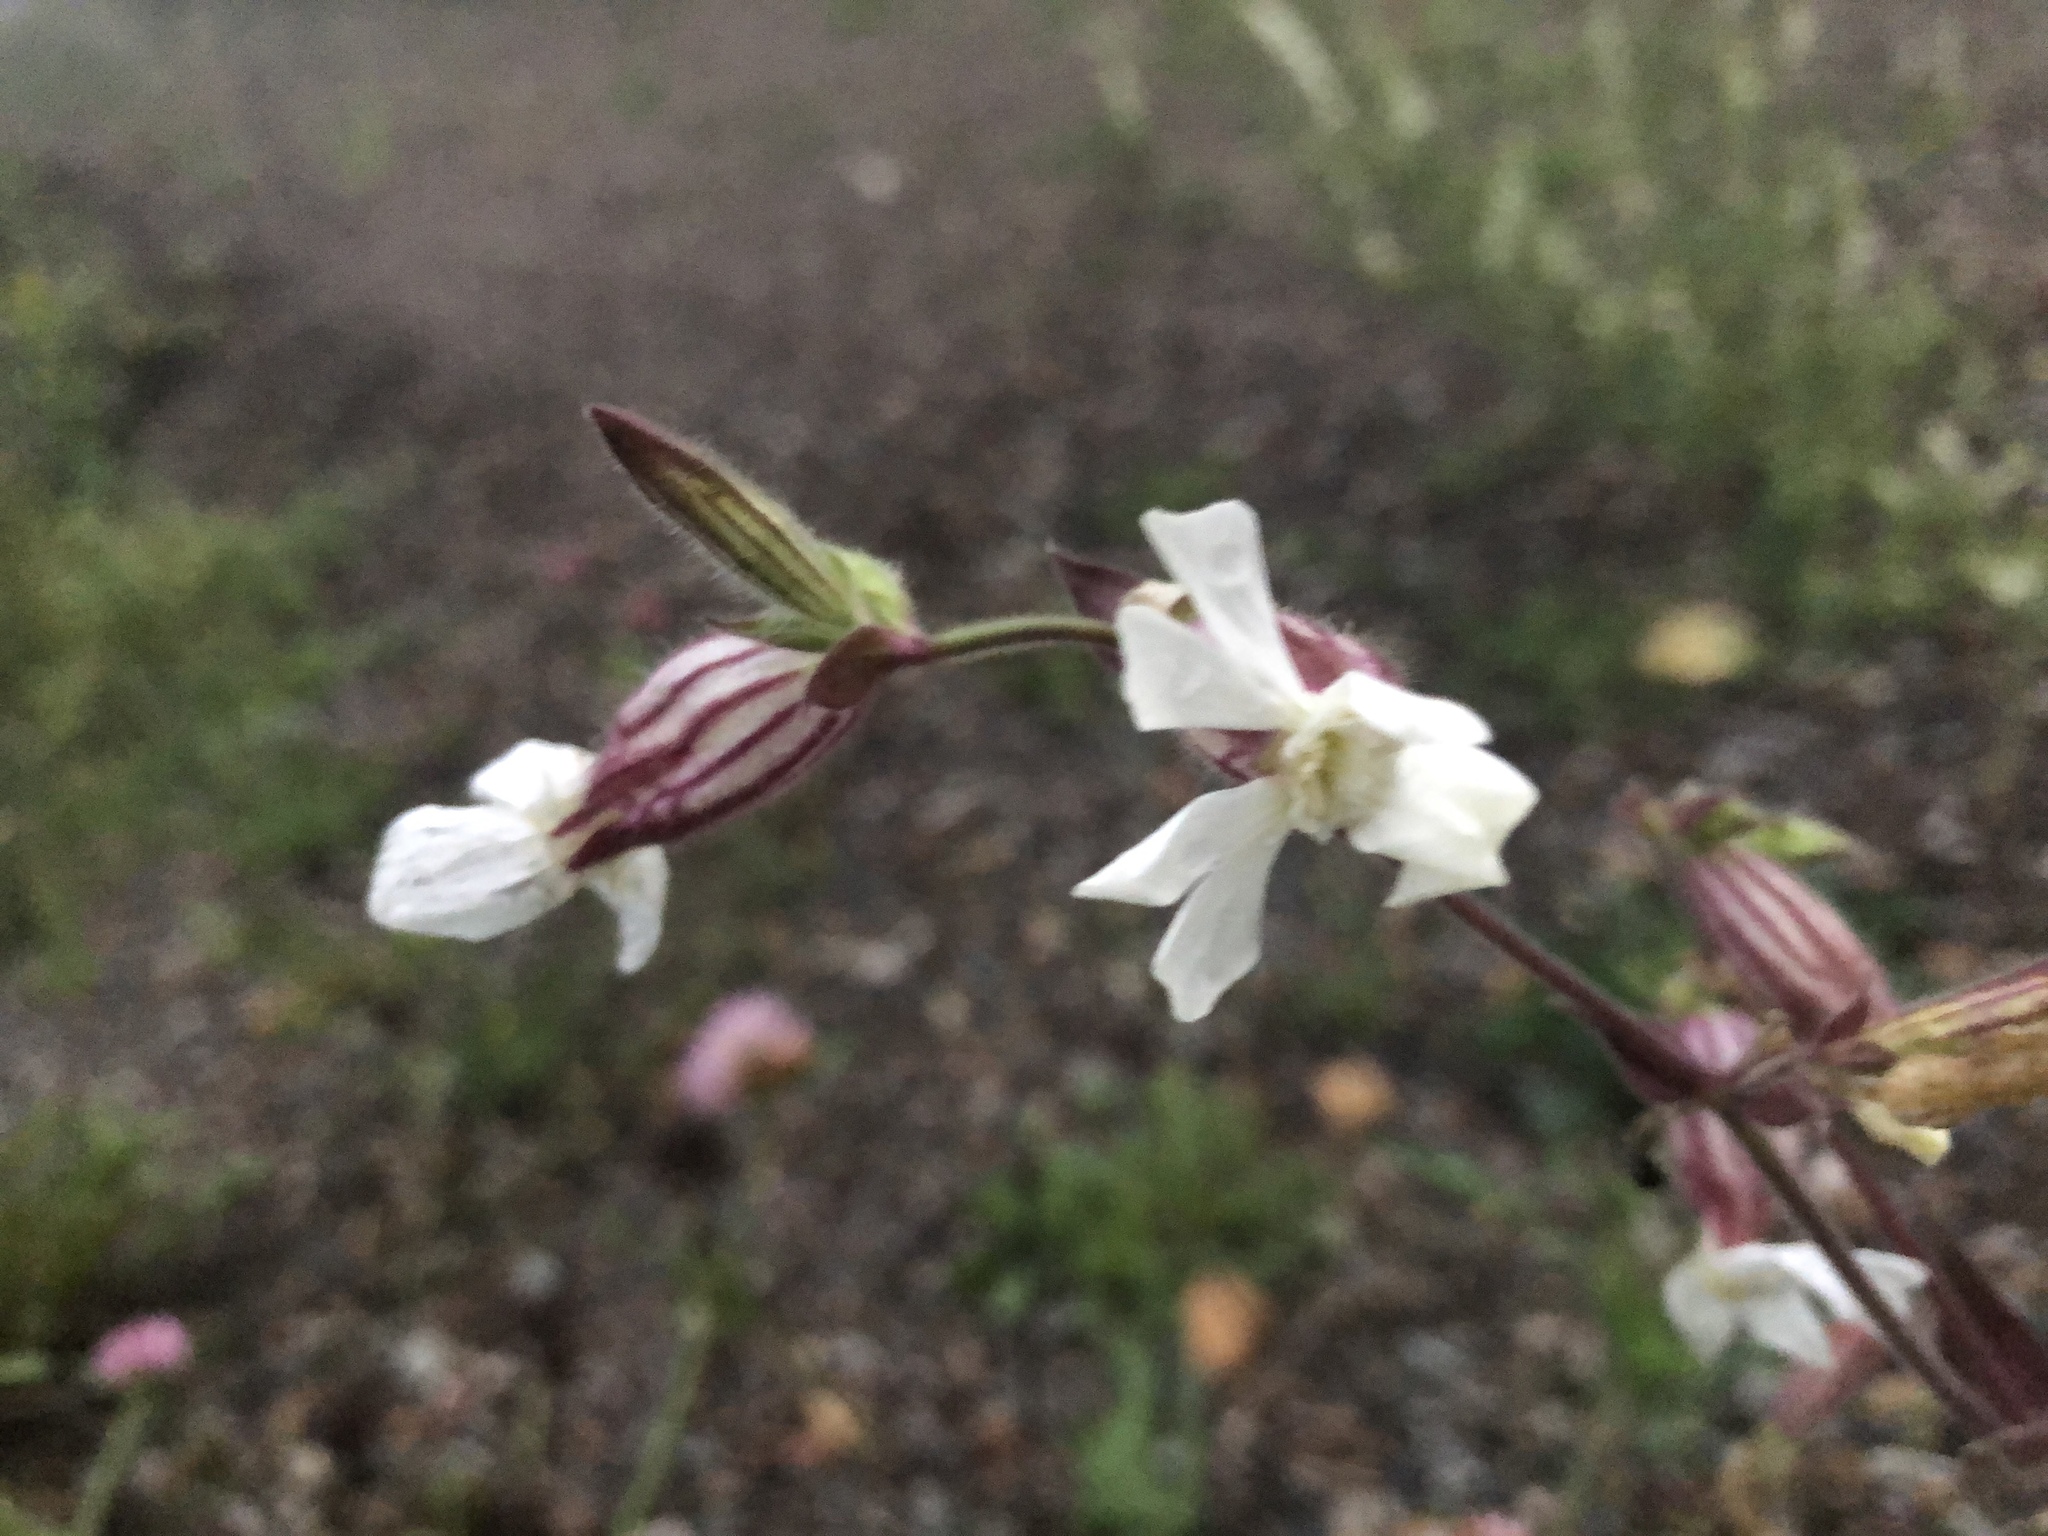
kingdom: Plantae
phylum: Tracheophyta
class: Magnoliopsida
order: Caryophyllales
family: Caryophyllaceae
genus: Silene
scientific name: Silene latifolia
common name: White campion
